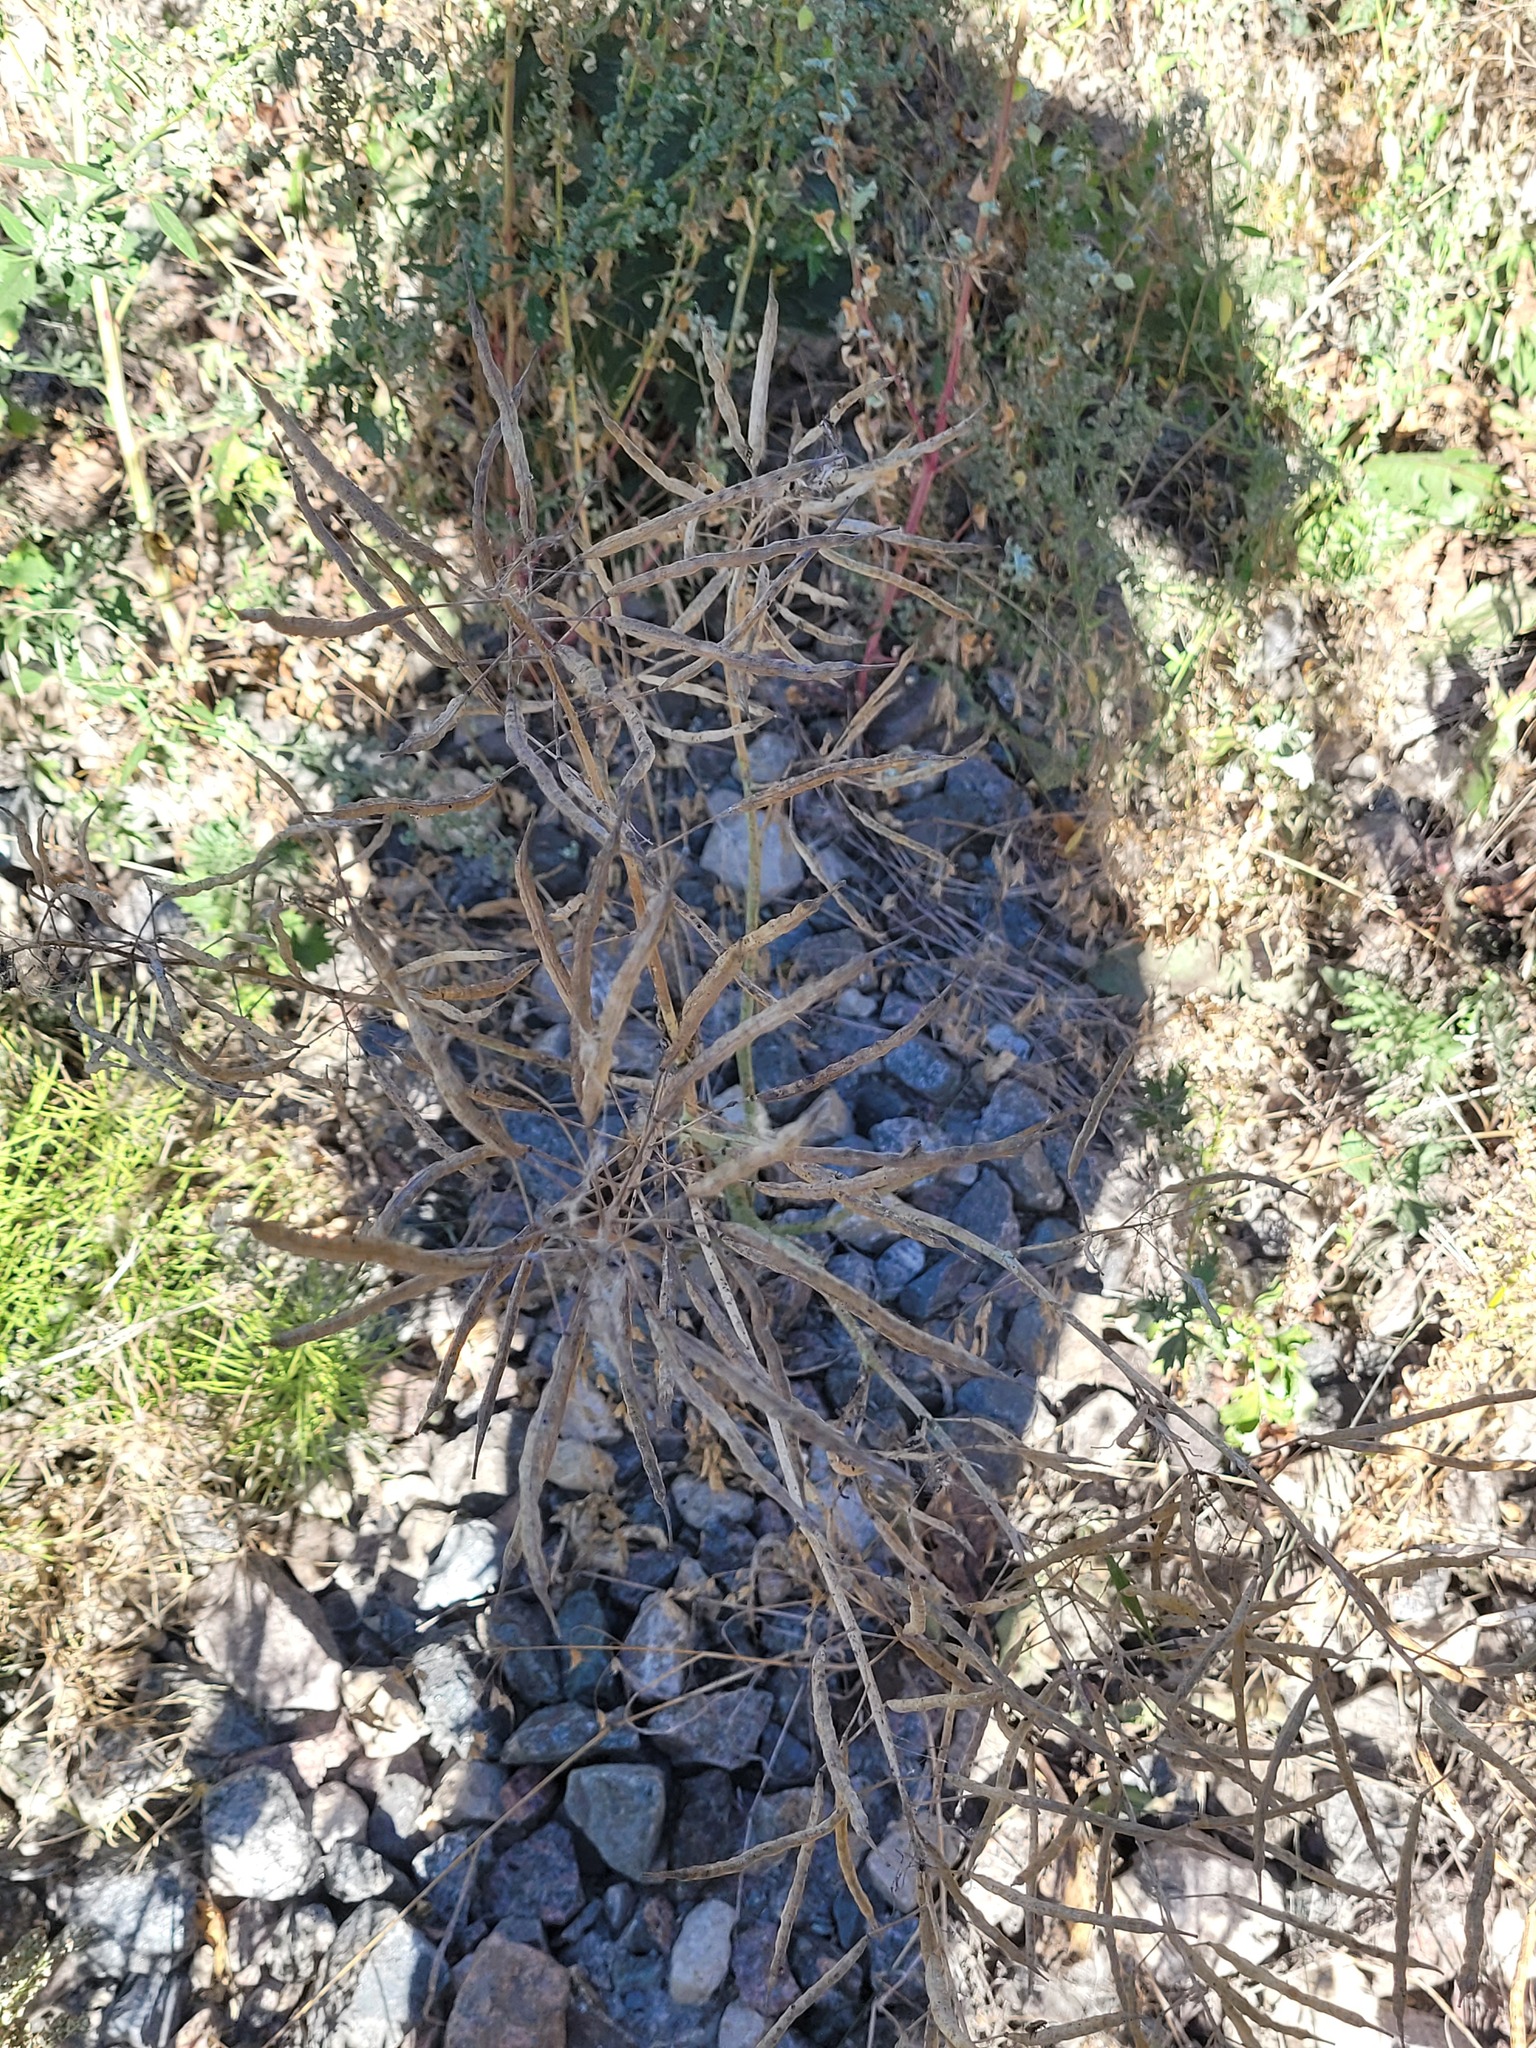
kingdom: Plantae
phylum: Tracheophyta
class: Magnoliopsida
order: Brassicales
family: Brassicaceae
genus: Brassica
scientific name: Brassica napus
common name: Rape
